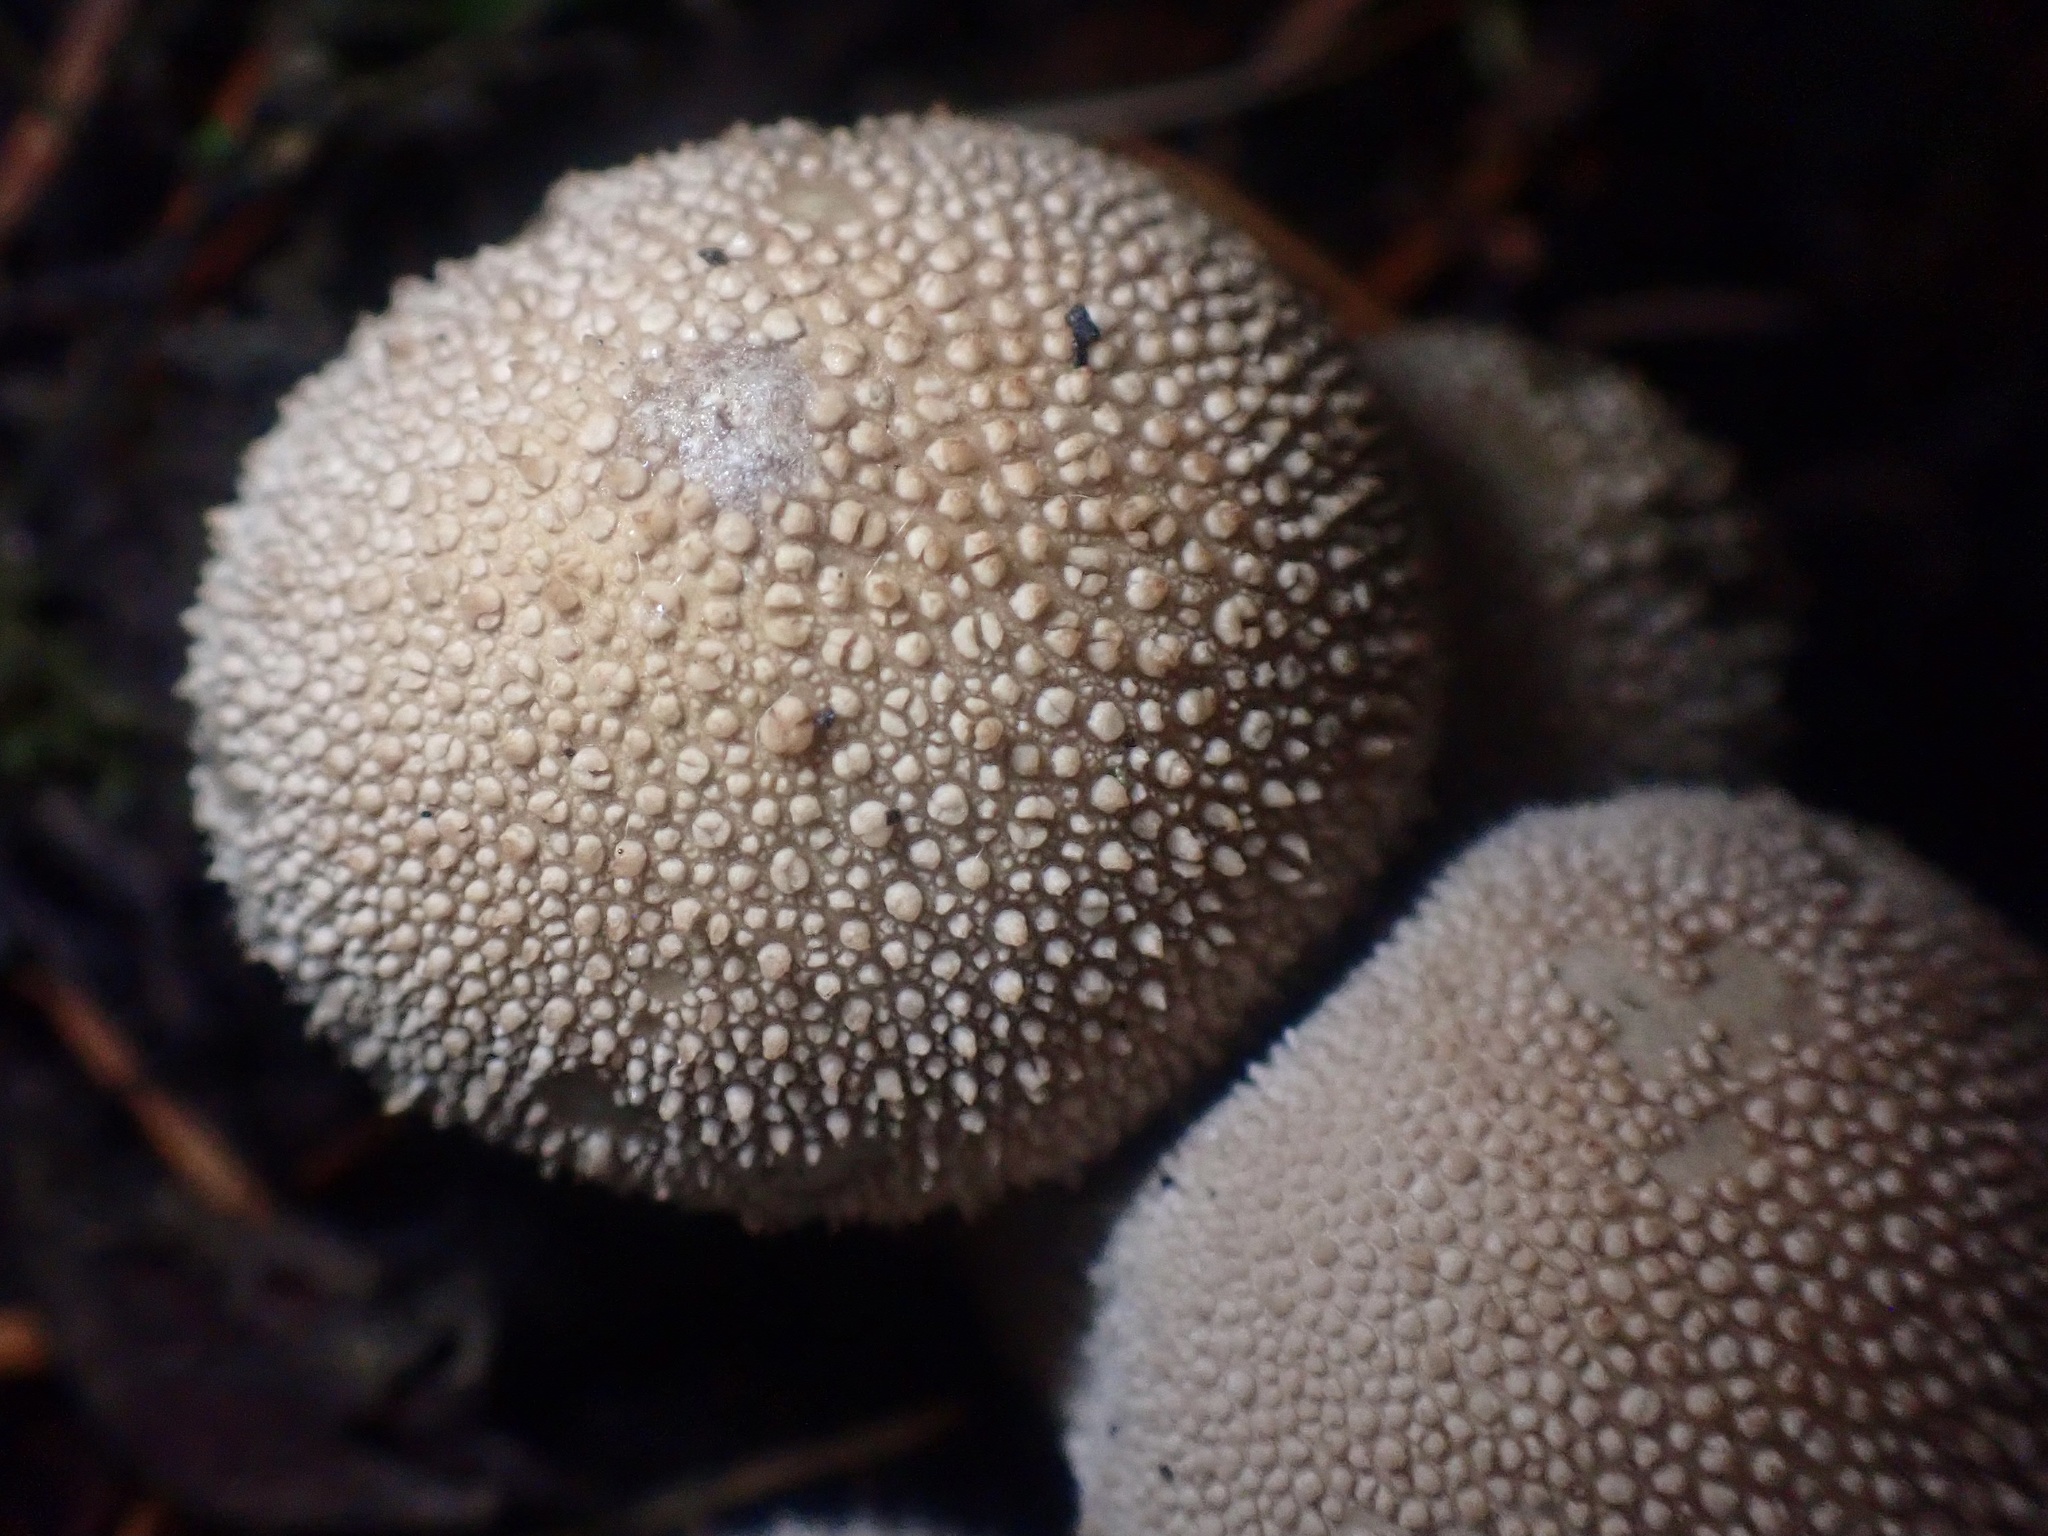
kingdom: Fungi
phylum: Basidiomycota
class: Agaricomycetes
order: Agaricales
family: Lycoperdaceae
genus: Lycoperdon
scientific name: Lycoperdon perlatum
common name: Common puffball
